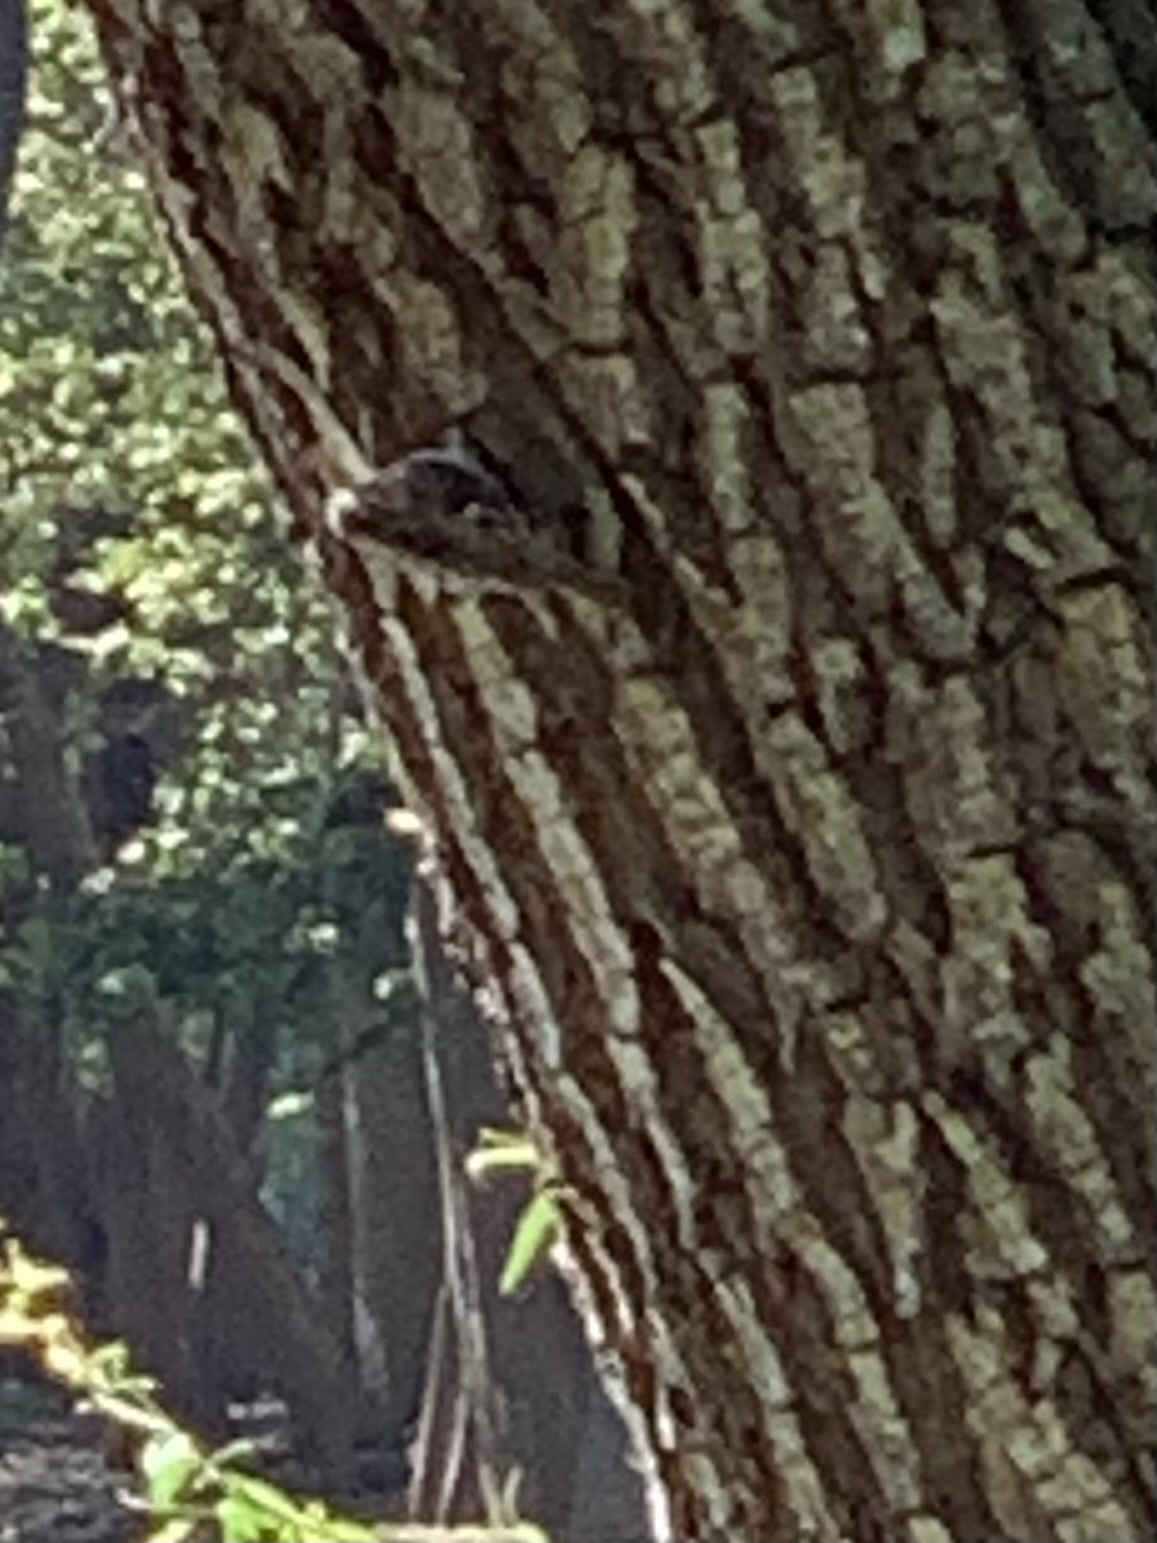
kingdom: Animalia
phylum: Chordata
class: Aves
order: Passeriformes
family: Certhiidae
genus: Certhia
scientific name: Certhia brachydactyla
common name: Short-toed treecreeper
